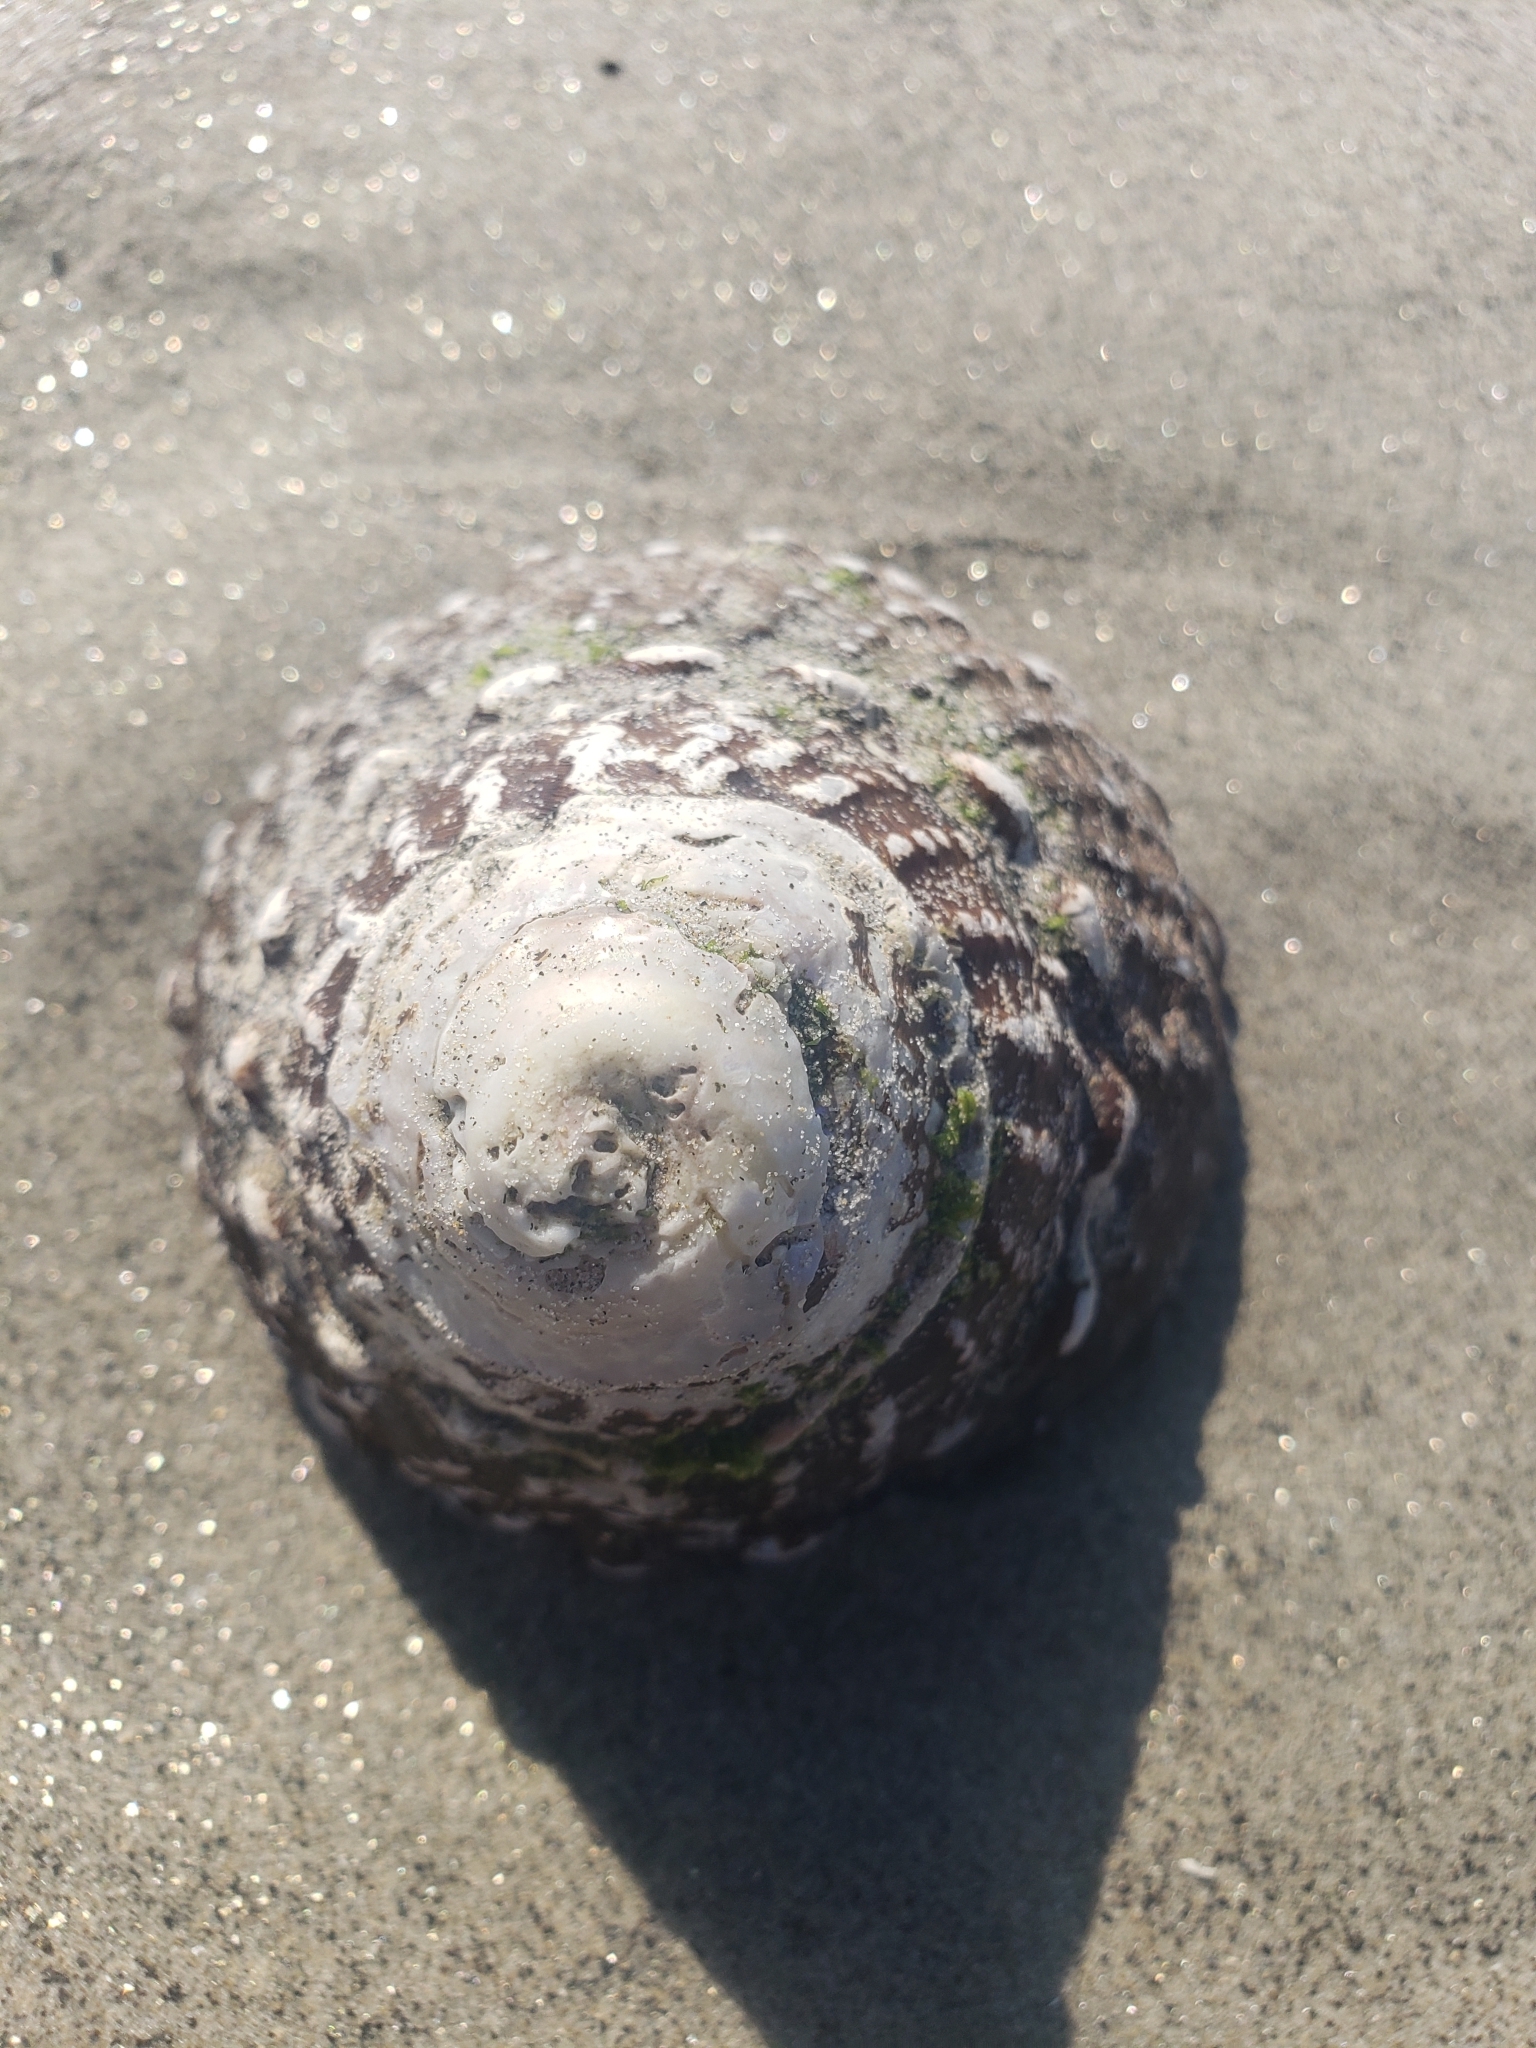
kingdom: Animalia
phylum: Mollusca
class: Gastropoda
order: Trochida
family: Turbinidae
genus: Megastraea
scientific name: Megastraea undosa
